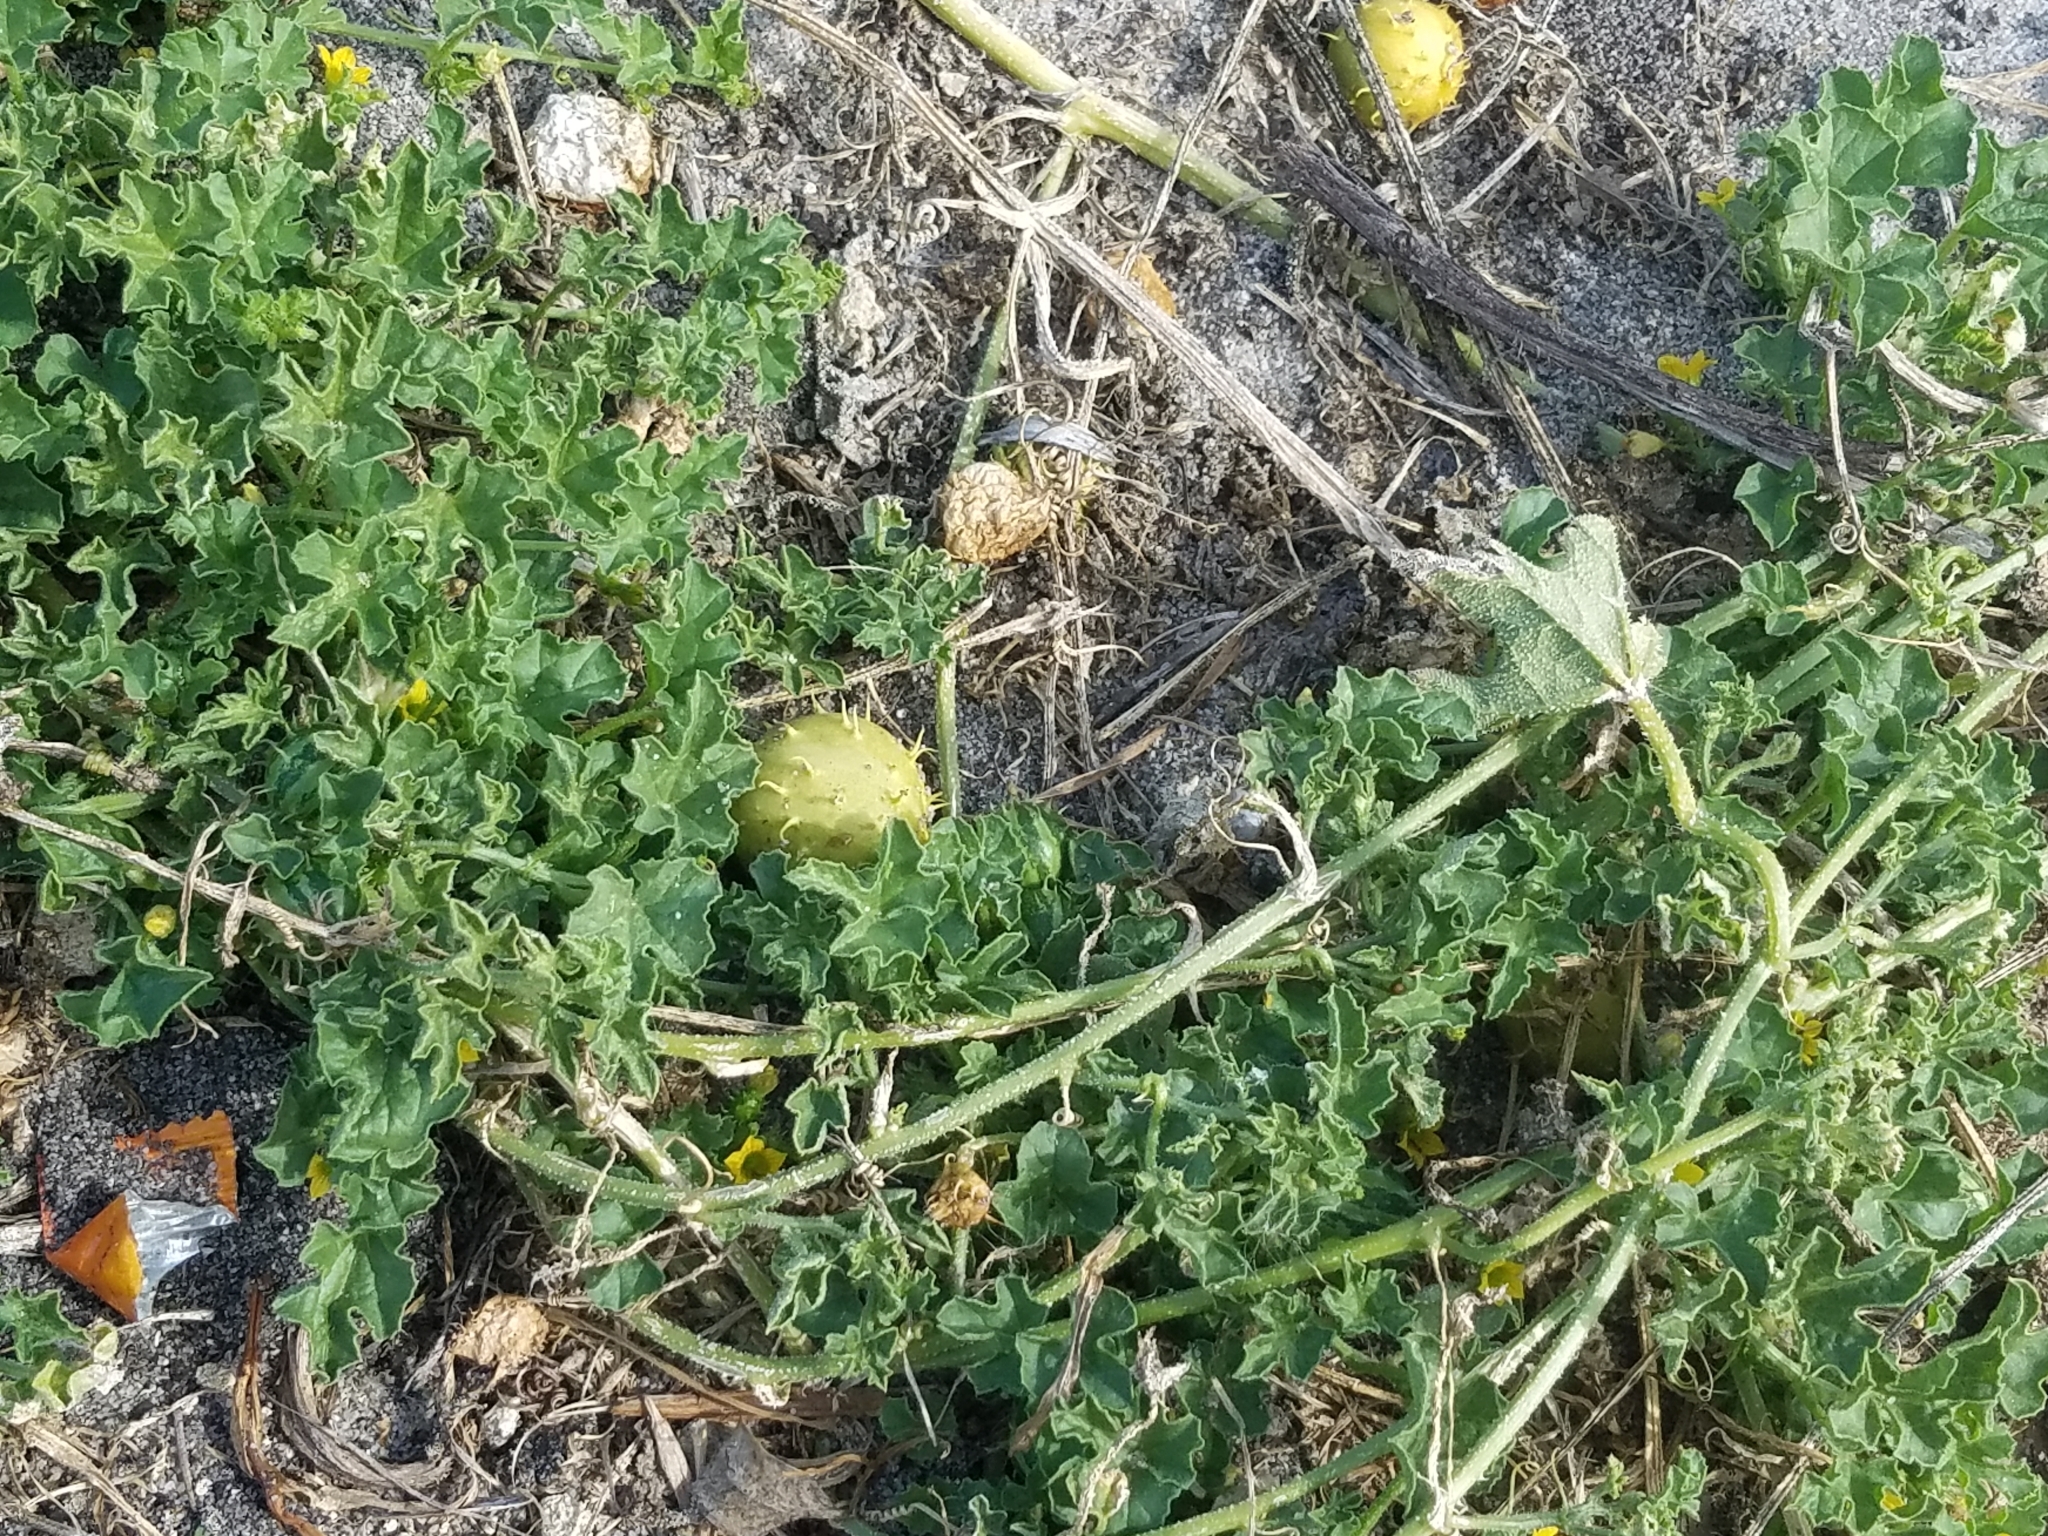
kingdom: Plantae
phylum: Tracheophyta
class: Magnoliopsida
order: Cucurbitales
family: Cucurbitaceae
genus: Cucumis
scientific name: Cucumis myriocarpus
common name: Gooseberry cucumber
